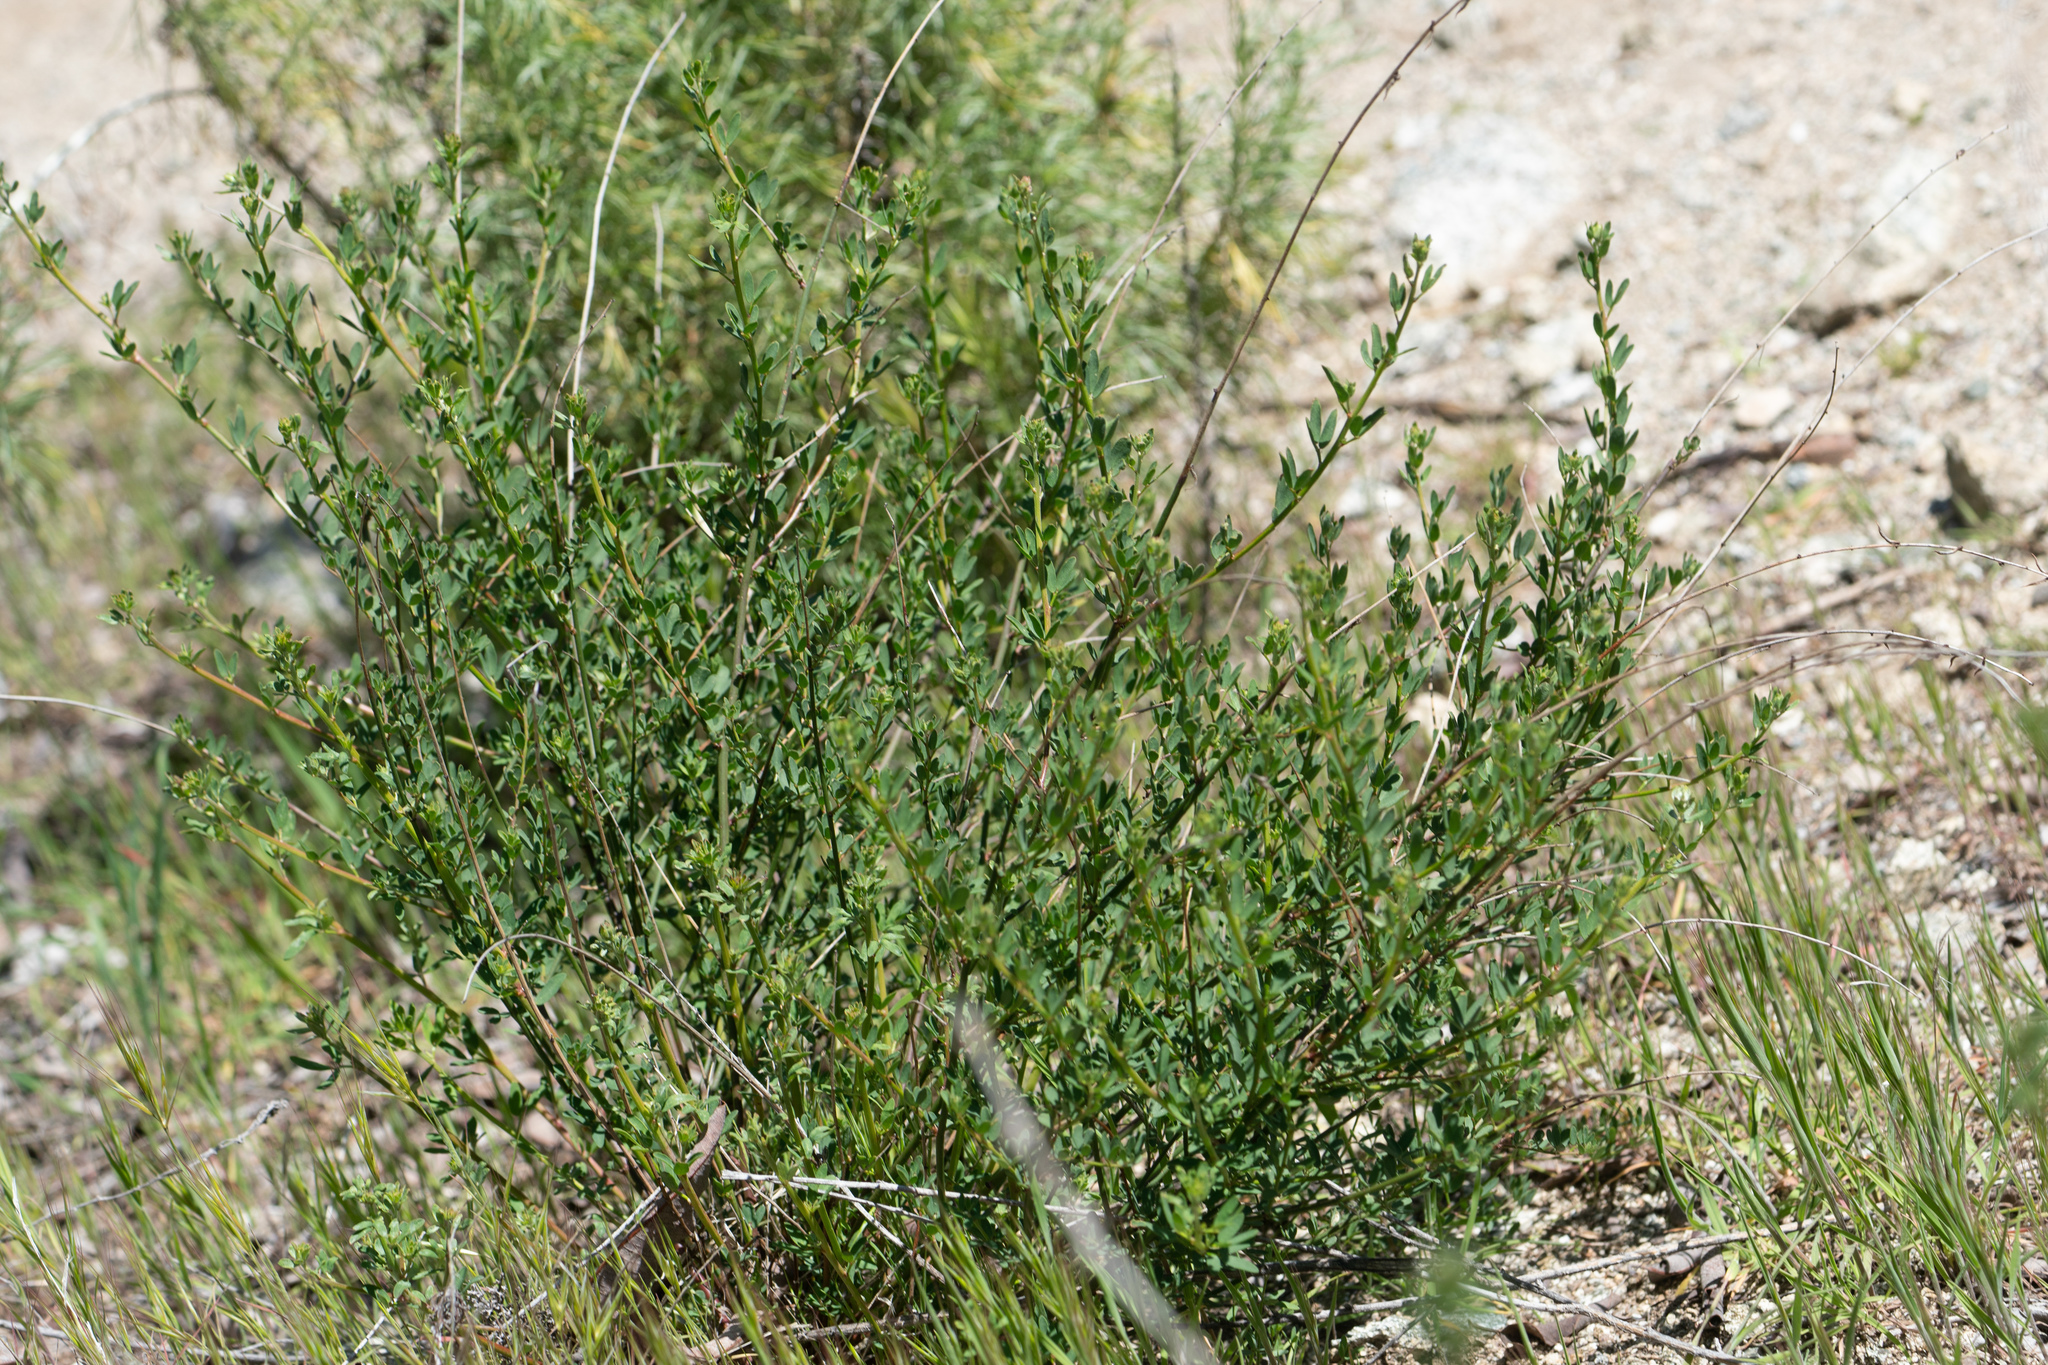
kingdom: Plantae
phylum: Tracheophyta
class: Magnoliopsida
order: Fabales
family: Fabaceae
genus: Acmispon
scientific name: Acmispon glaber
